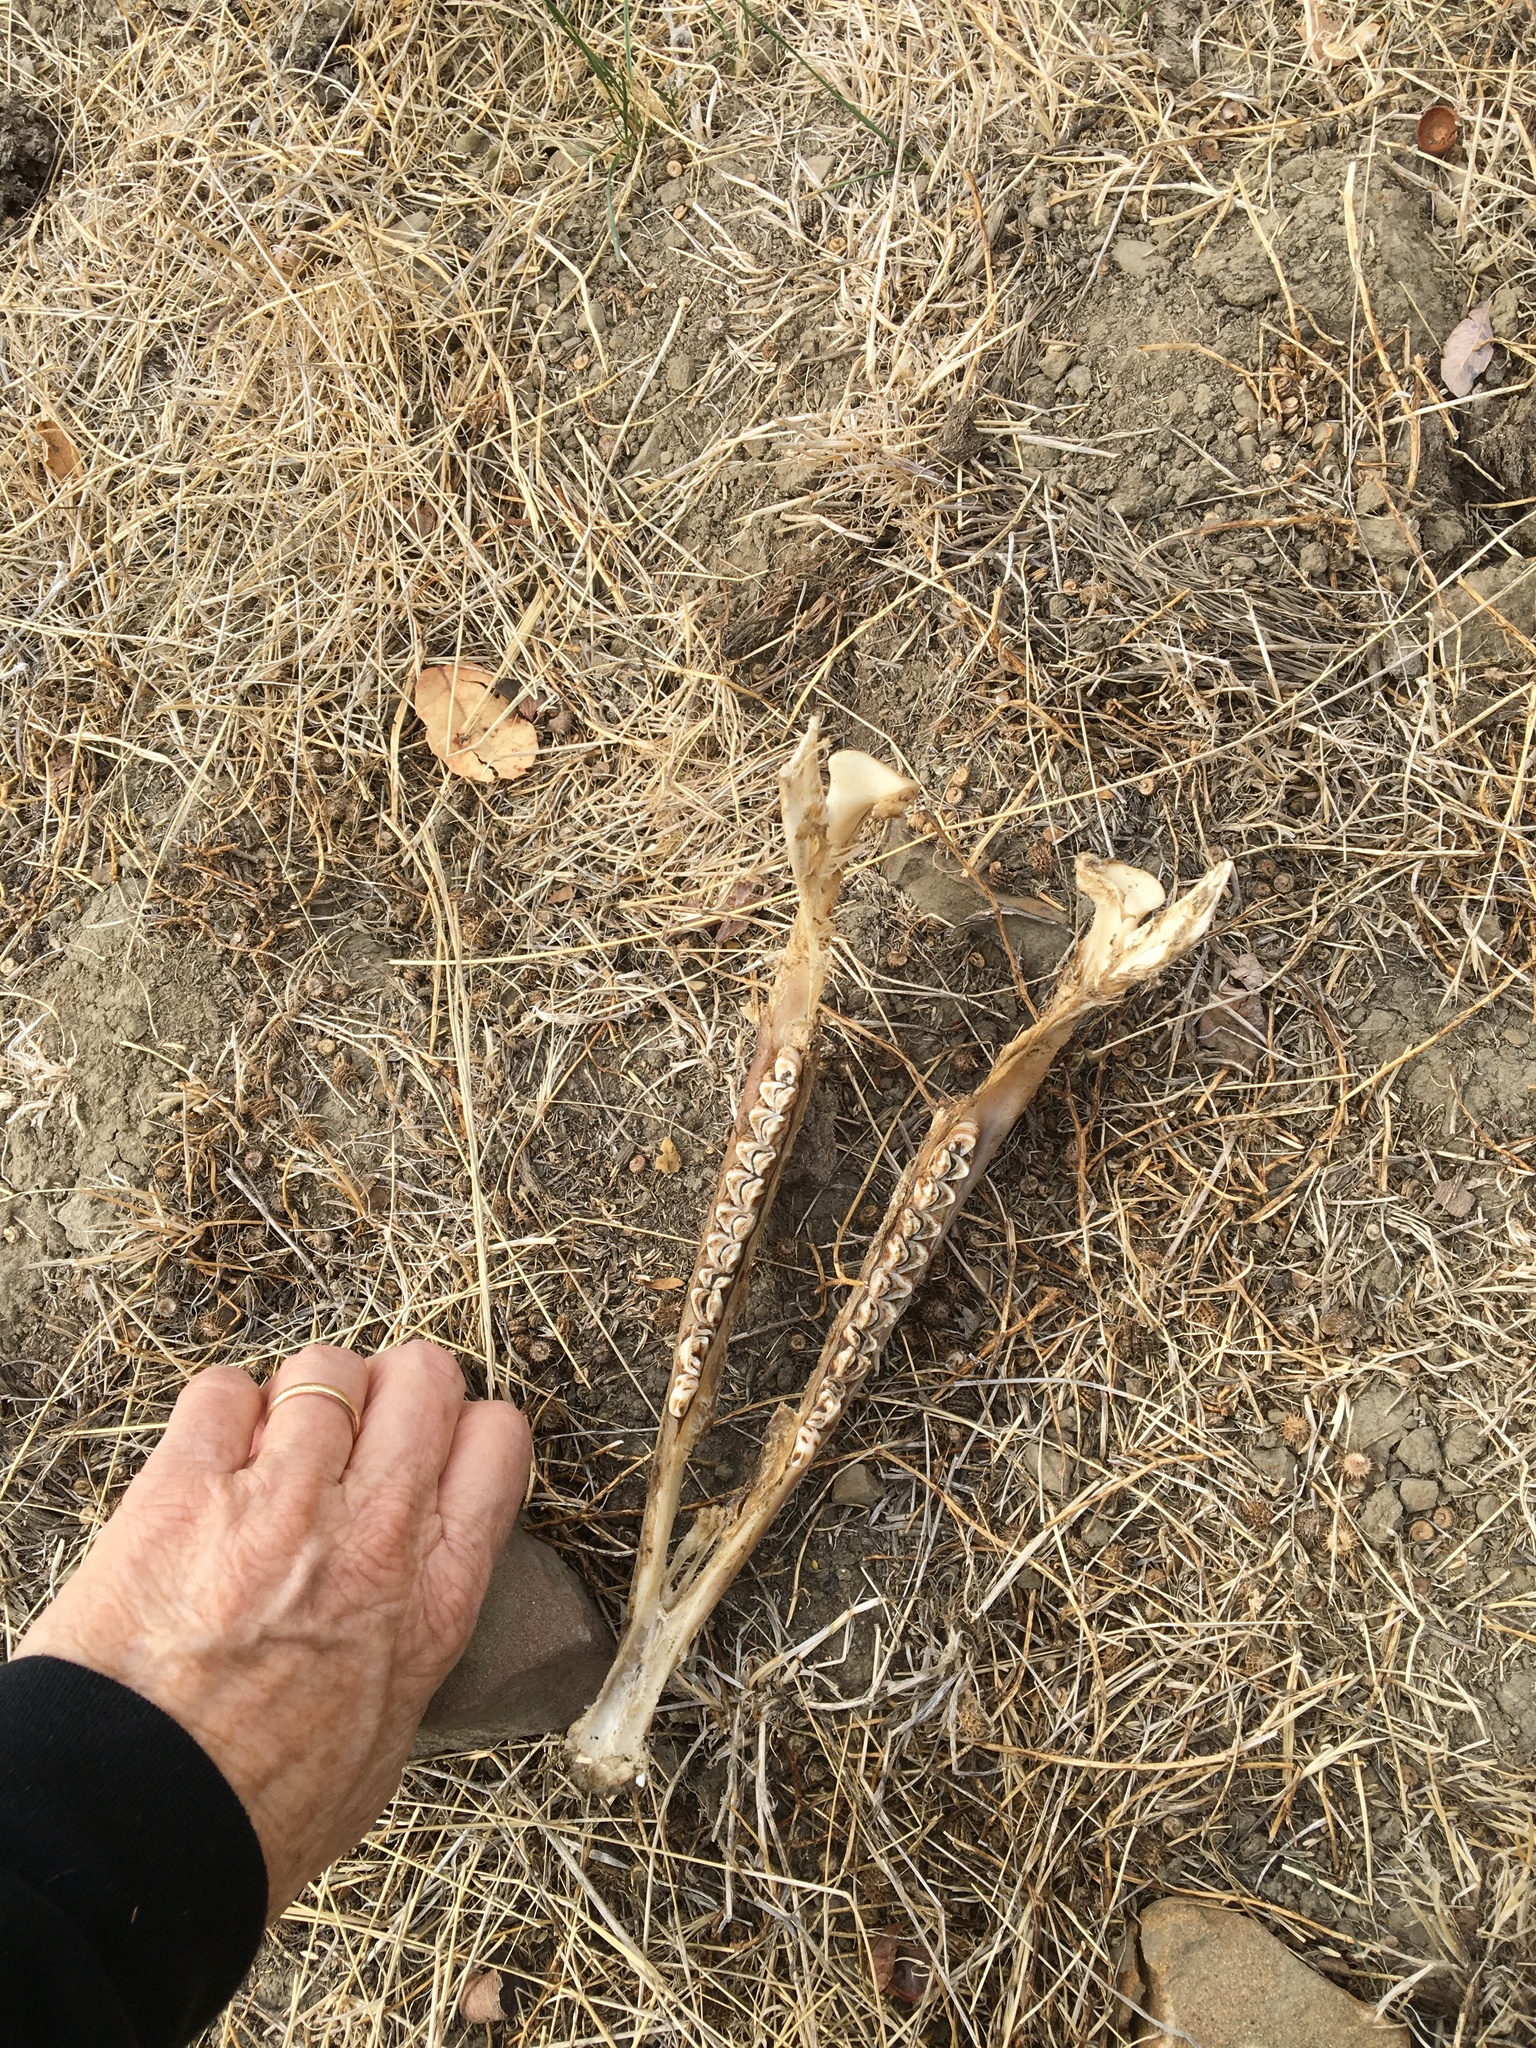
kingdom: Animalia
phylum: Chordata
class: Mammalia
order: Artiodactyla
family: Cervidae
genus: Odocoileus
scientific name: Odocoileus hemionus
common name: Mule deer
